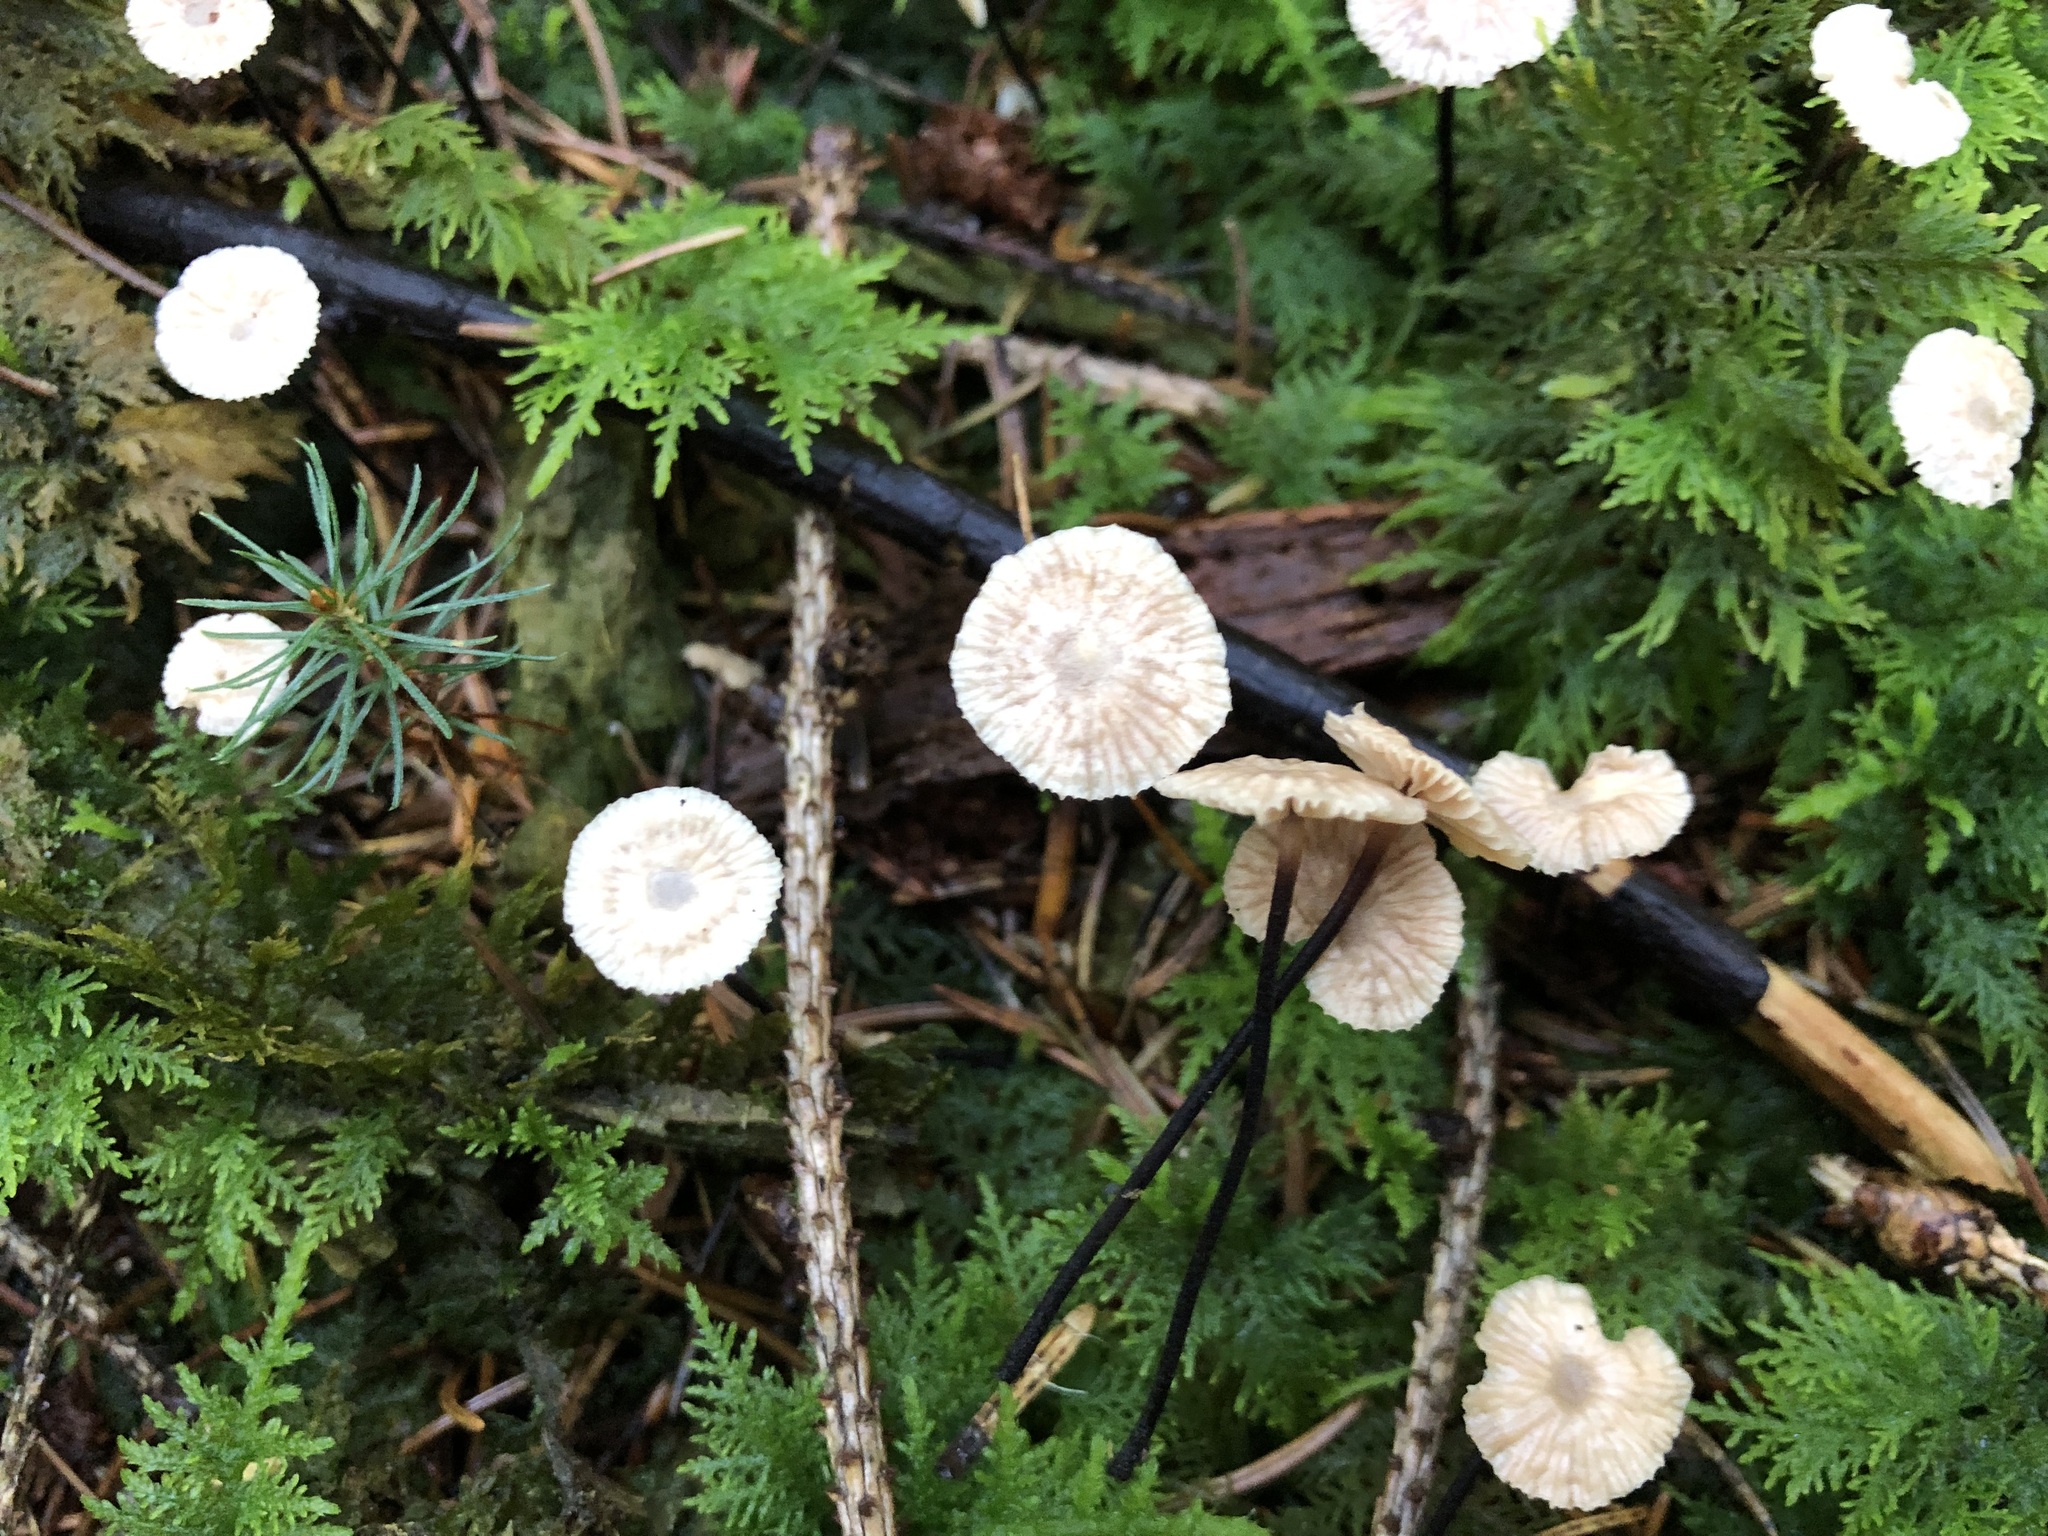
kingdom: Fungi
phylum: Basidiomycota
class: Agaricomycetes
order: Agaricales
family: Omphalotaceae
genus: Paragymnopus
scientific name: Paragymnopus perforans
